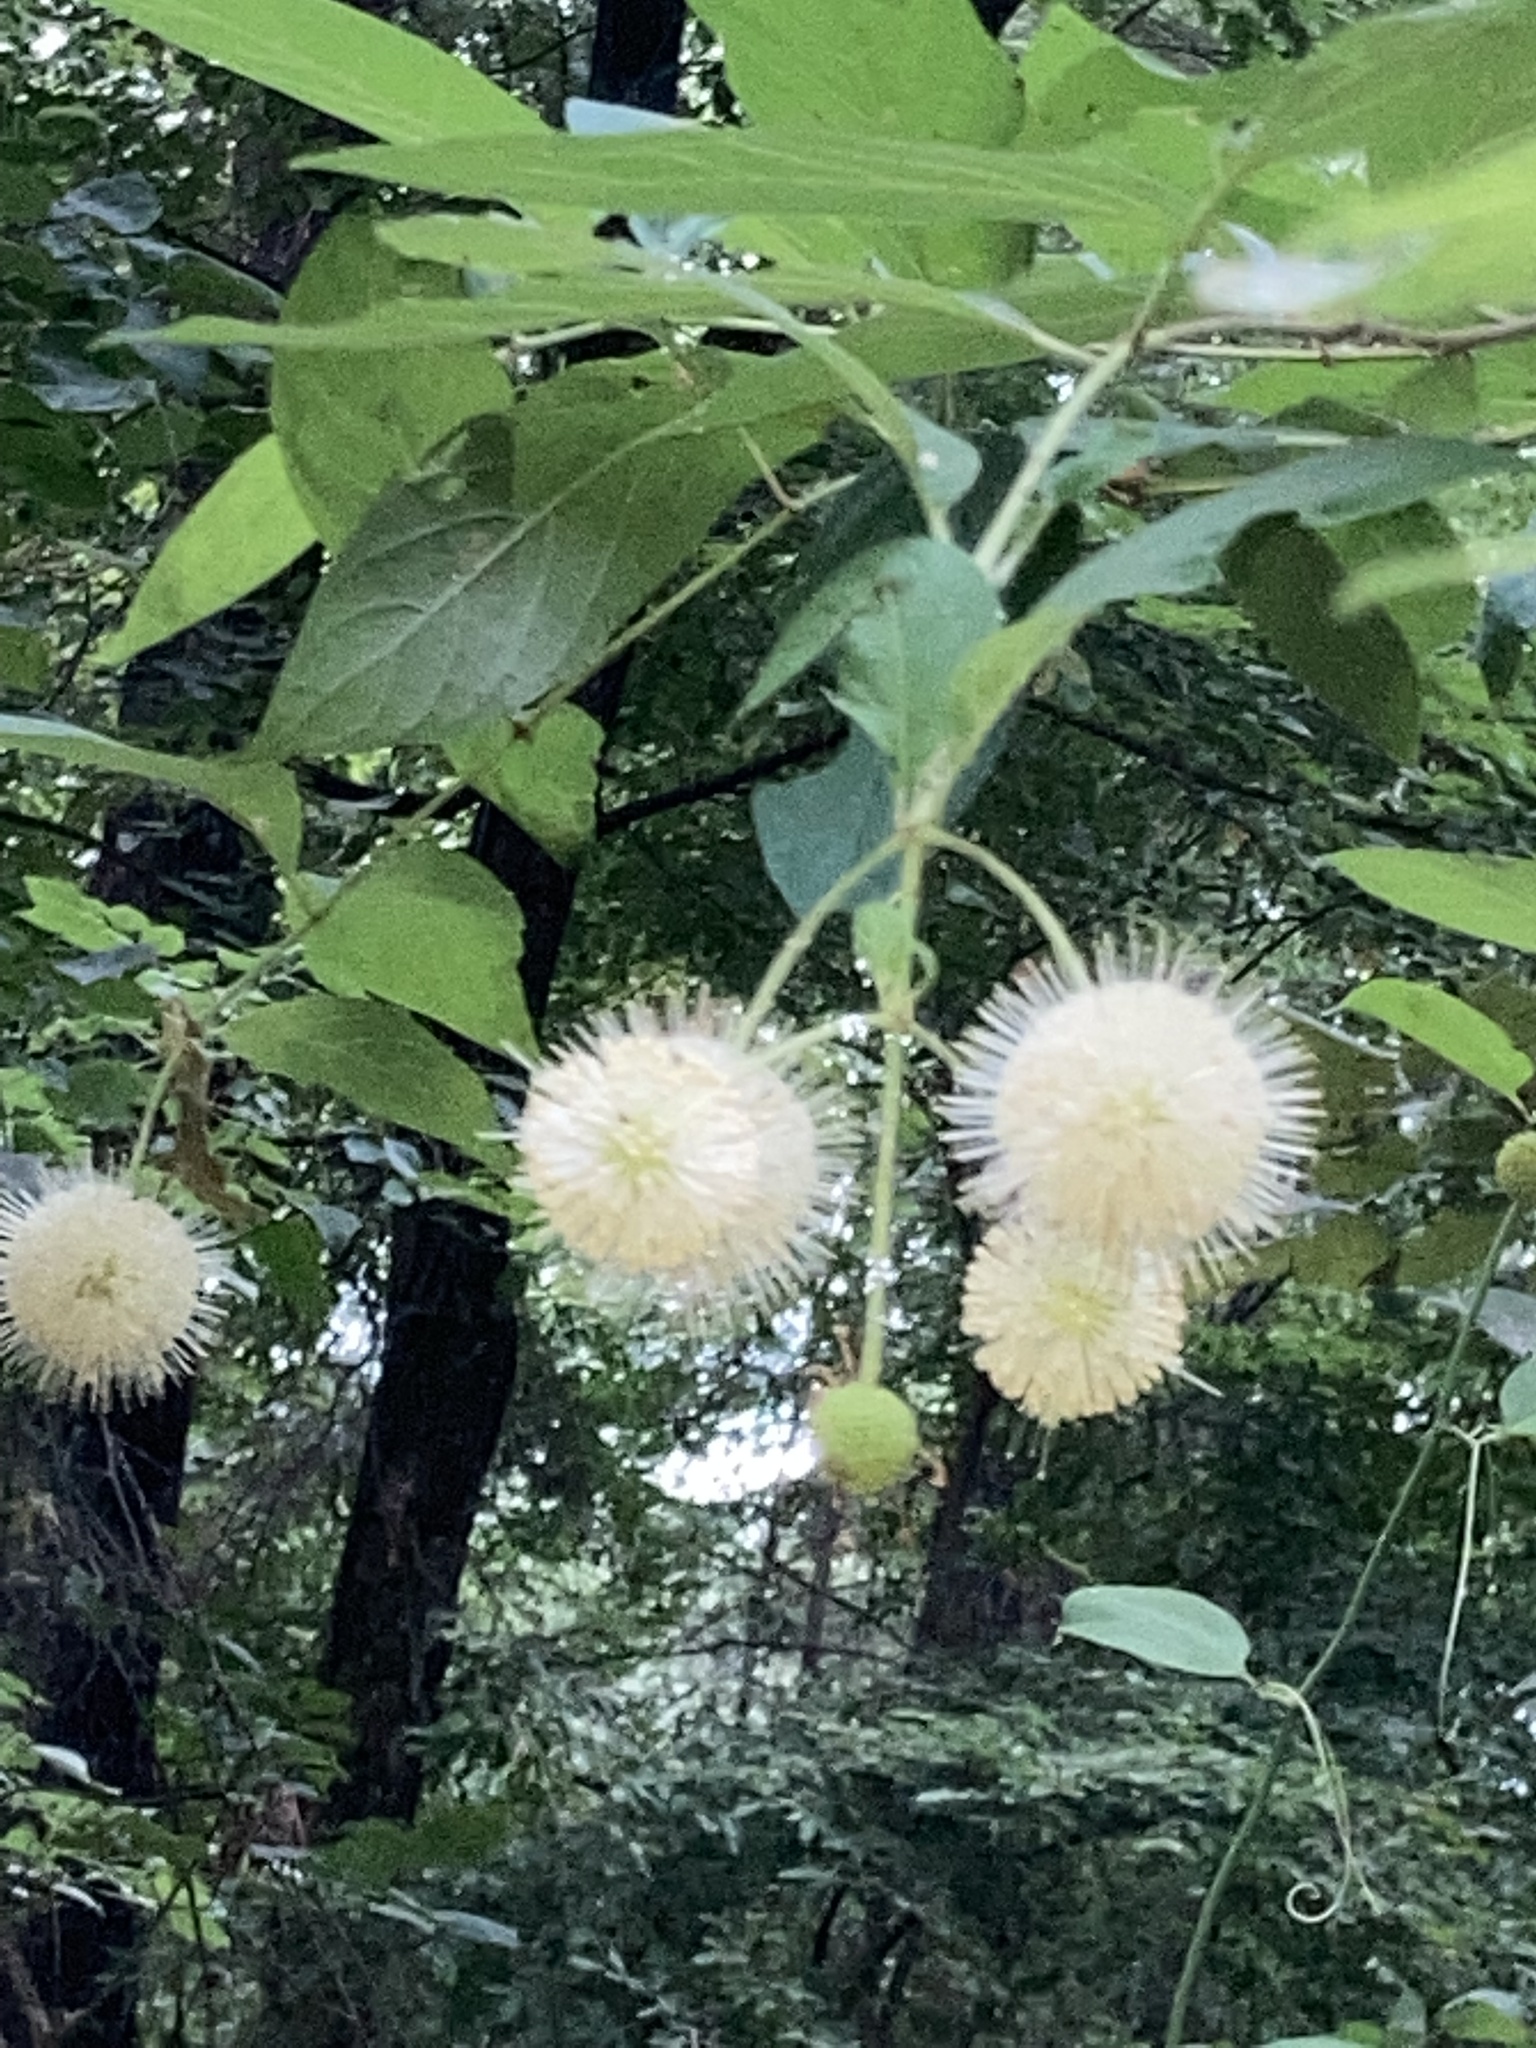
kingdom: Plantae
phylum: Tracheophyta
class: Magnoliopsida
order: Gentianales
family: Rubiaceae
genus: Cephalanthus
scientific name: Cephalanthus occidentalis
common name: Button-willow
